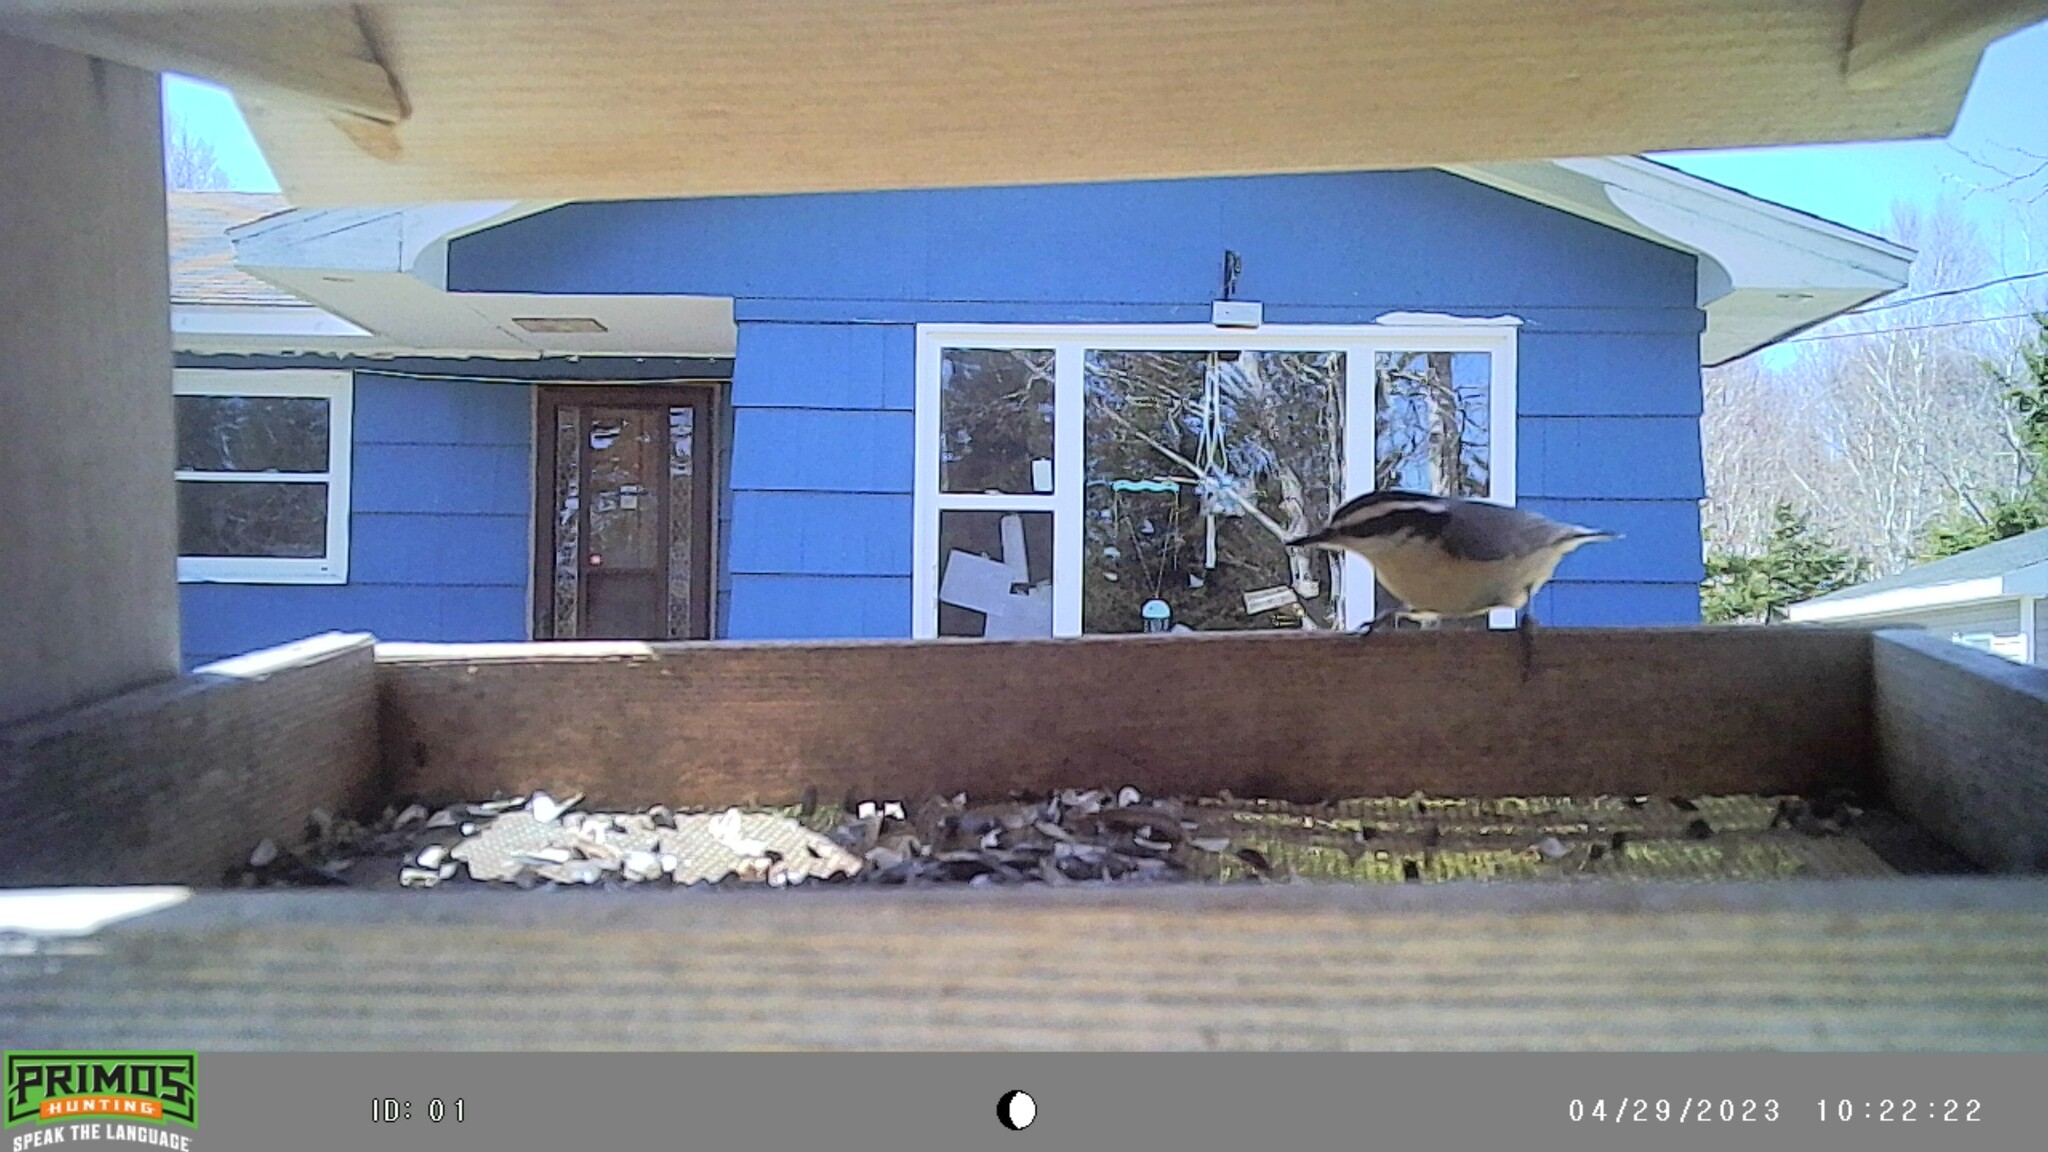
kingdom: Animalia
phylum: Chordata
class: Aves
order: Passeriformes
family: Sittidae
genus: Sitta
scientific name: Sitta canadensis
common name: Red-breasted nuthatch
